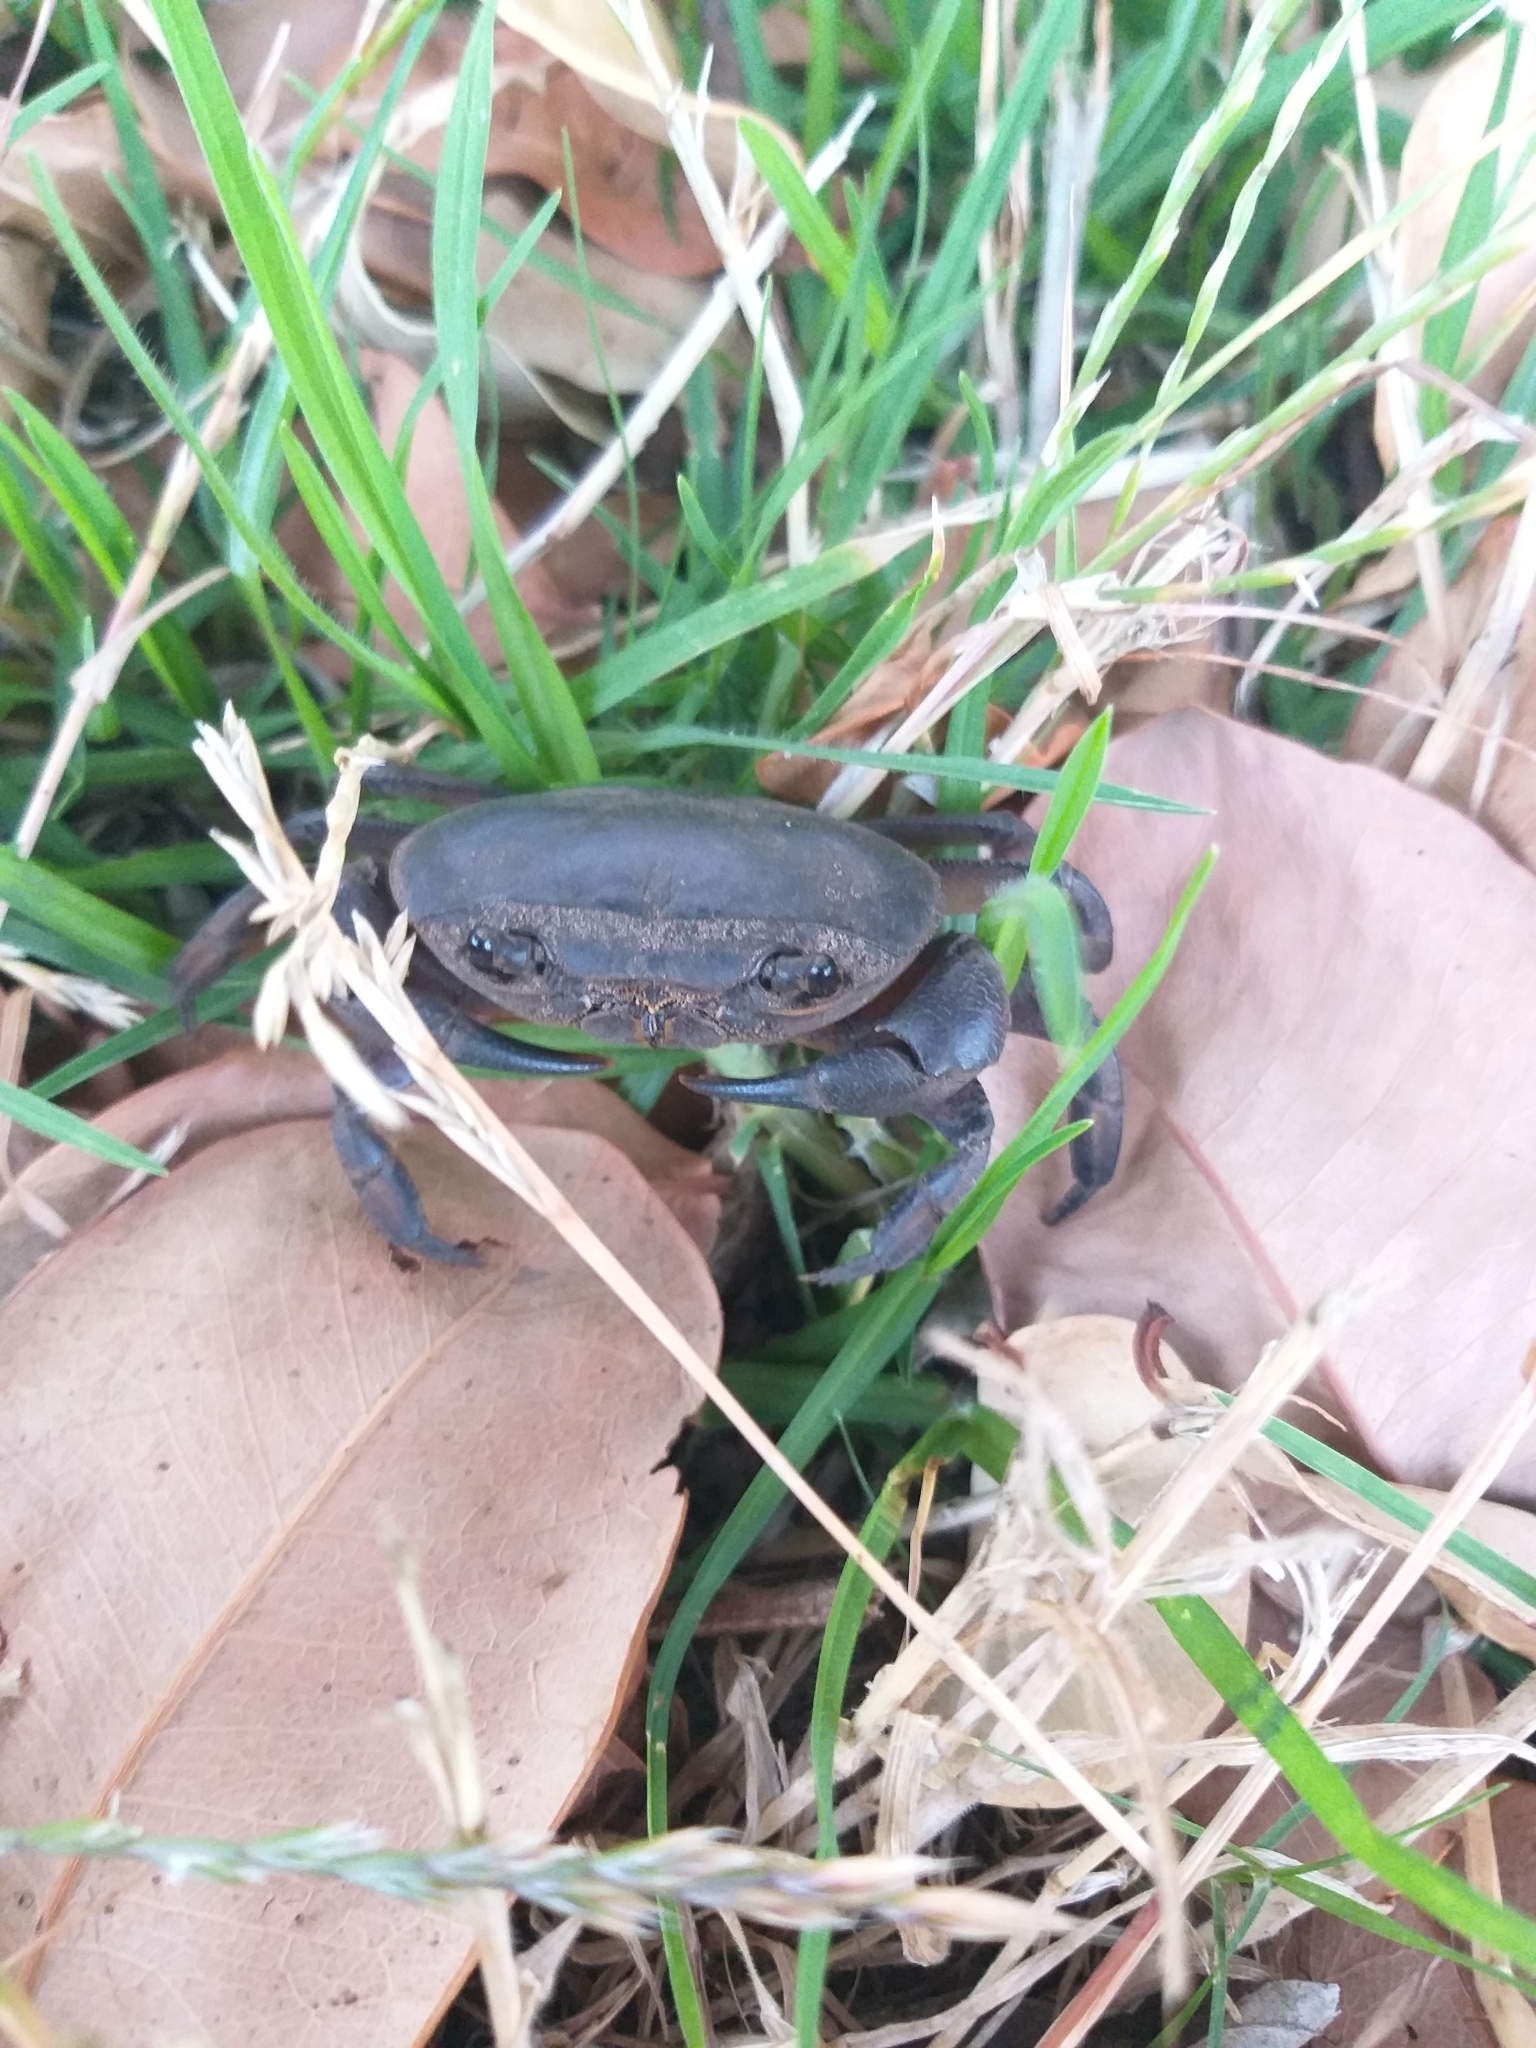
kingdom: Animalia
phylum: Arthropoda
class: Malacostraca
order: Decapoda
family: Potamonautidae
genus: Potamonautes
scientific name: Potamonautes perlatus
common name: Cape river crab
